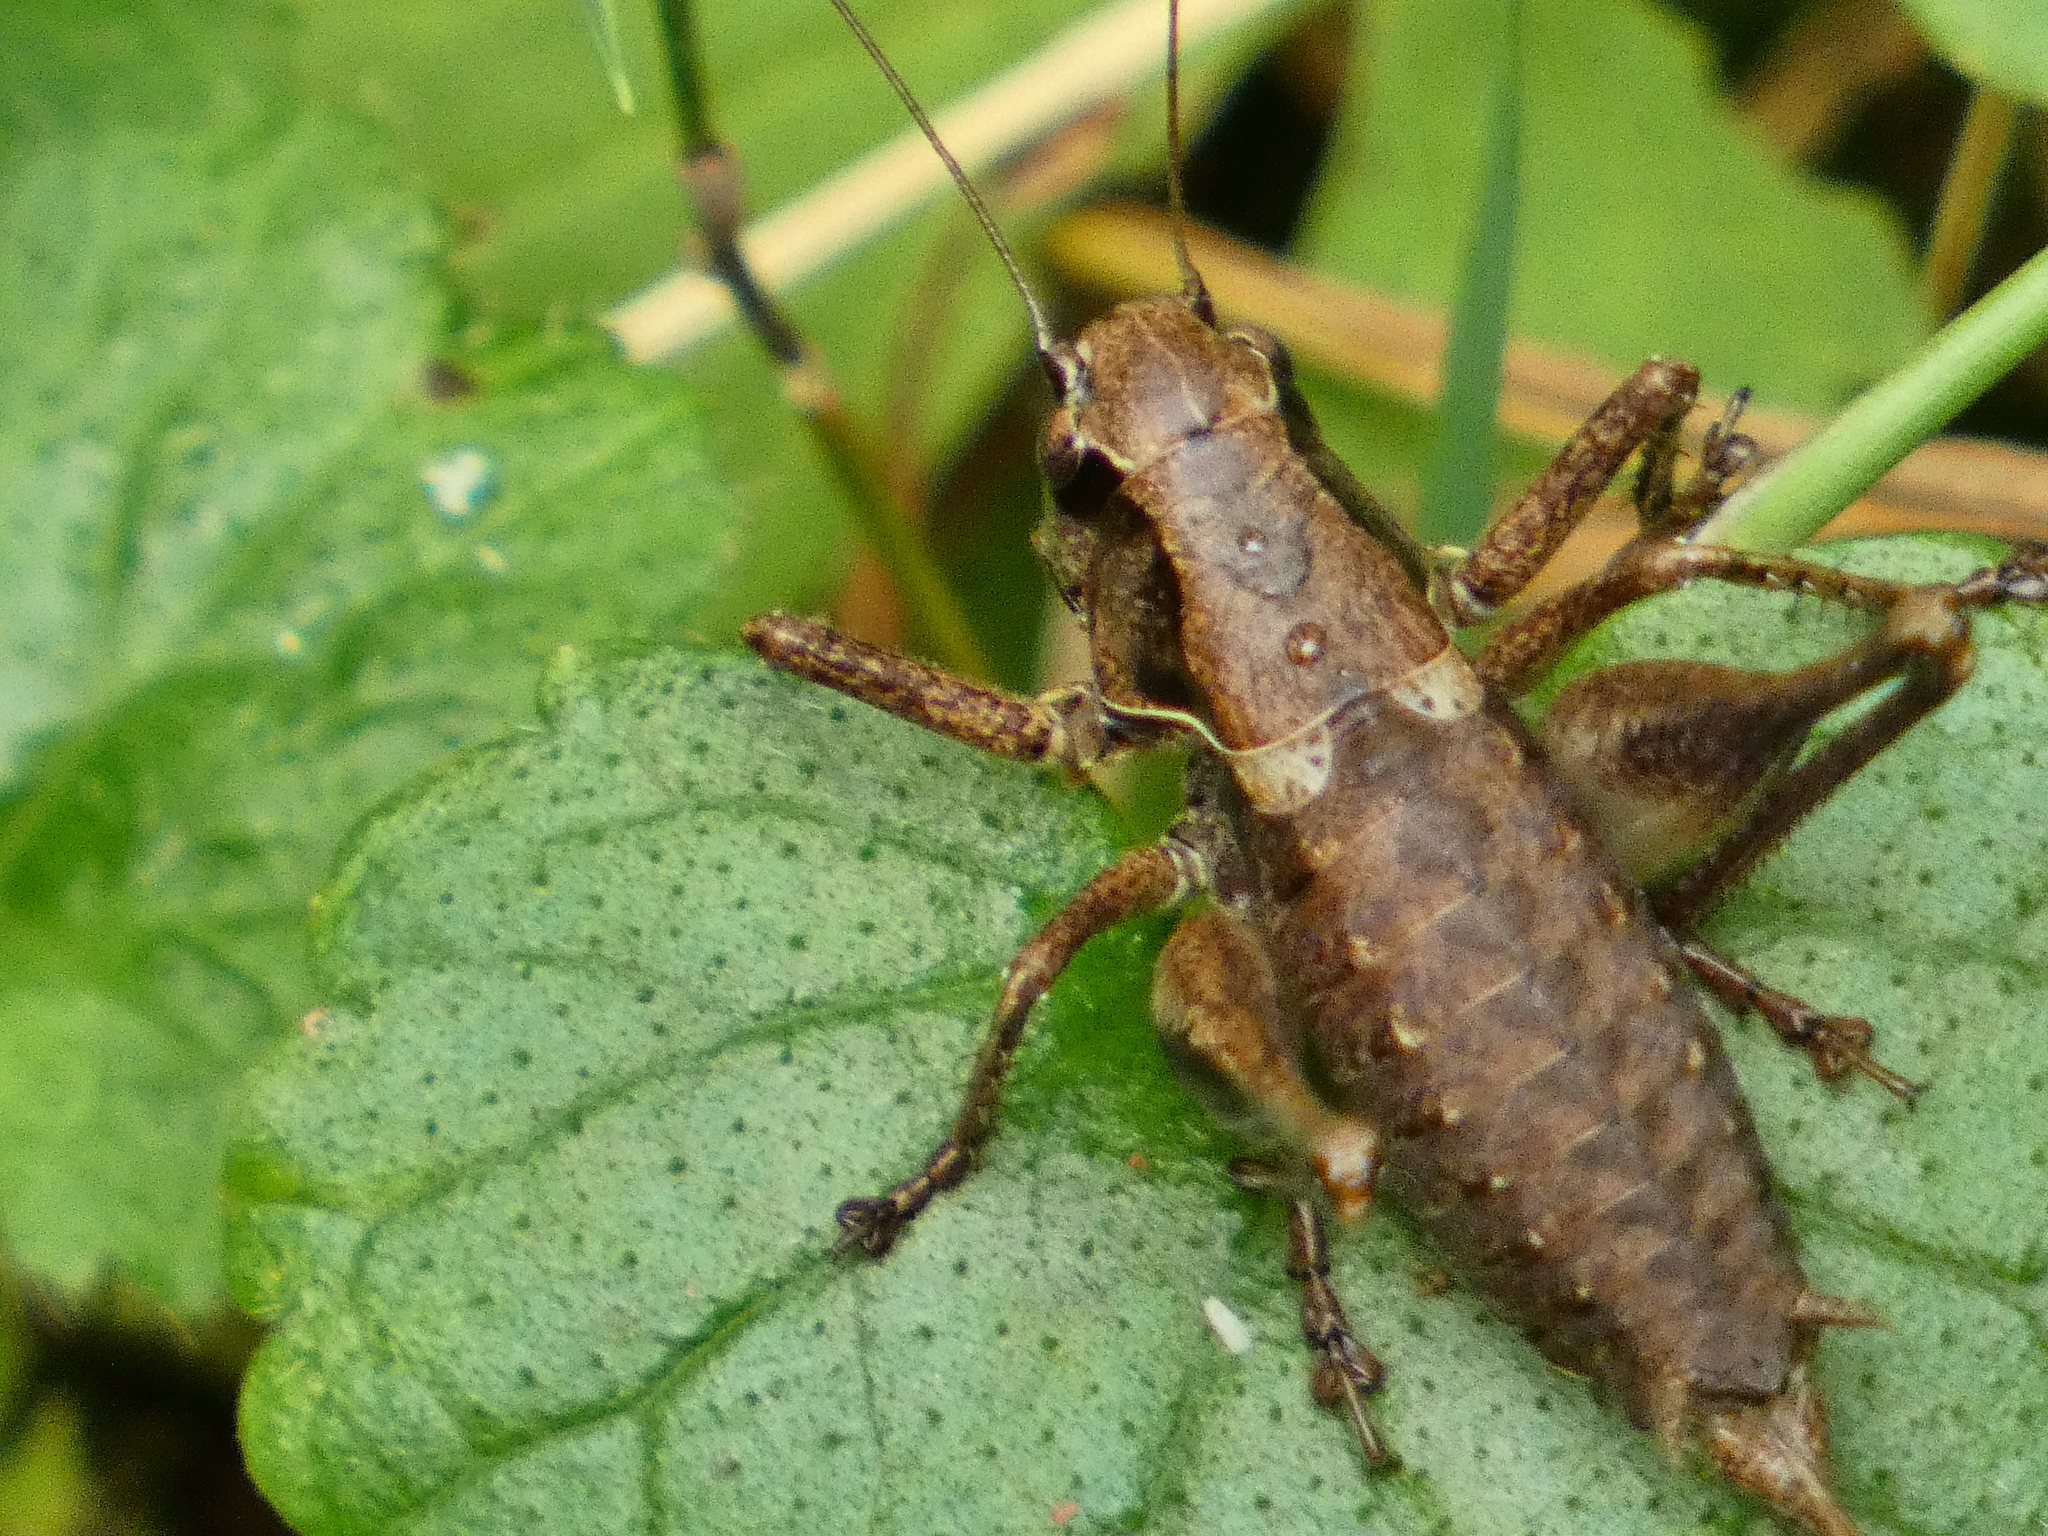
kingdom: Animalia
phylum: Arthropoda
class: Insecta
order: Orthoptera
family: Tettigoniidae
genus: Pholidoptera
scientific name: Pholidoptera griseoaptera
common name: Dark bush-cricket
